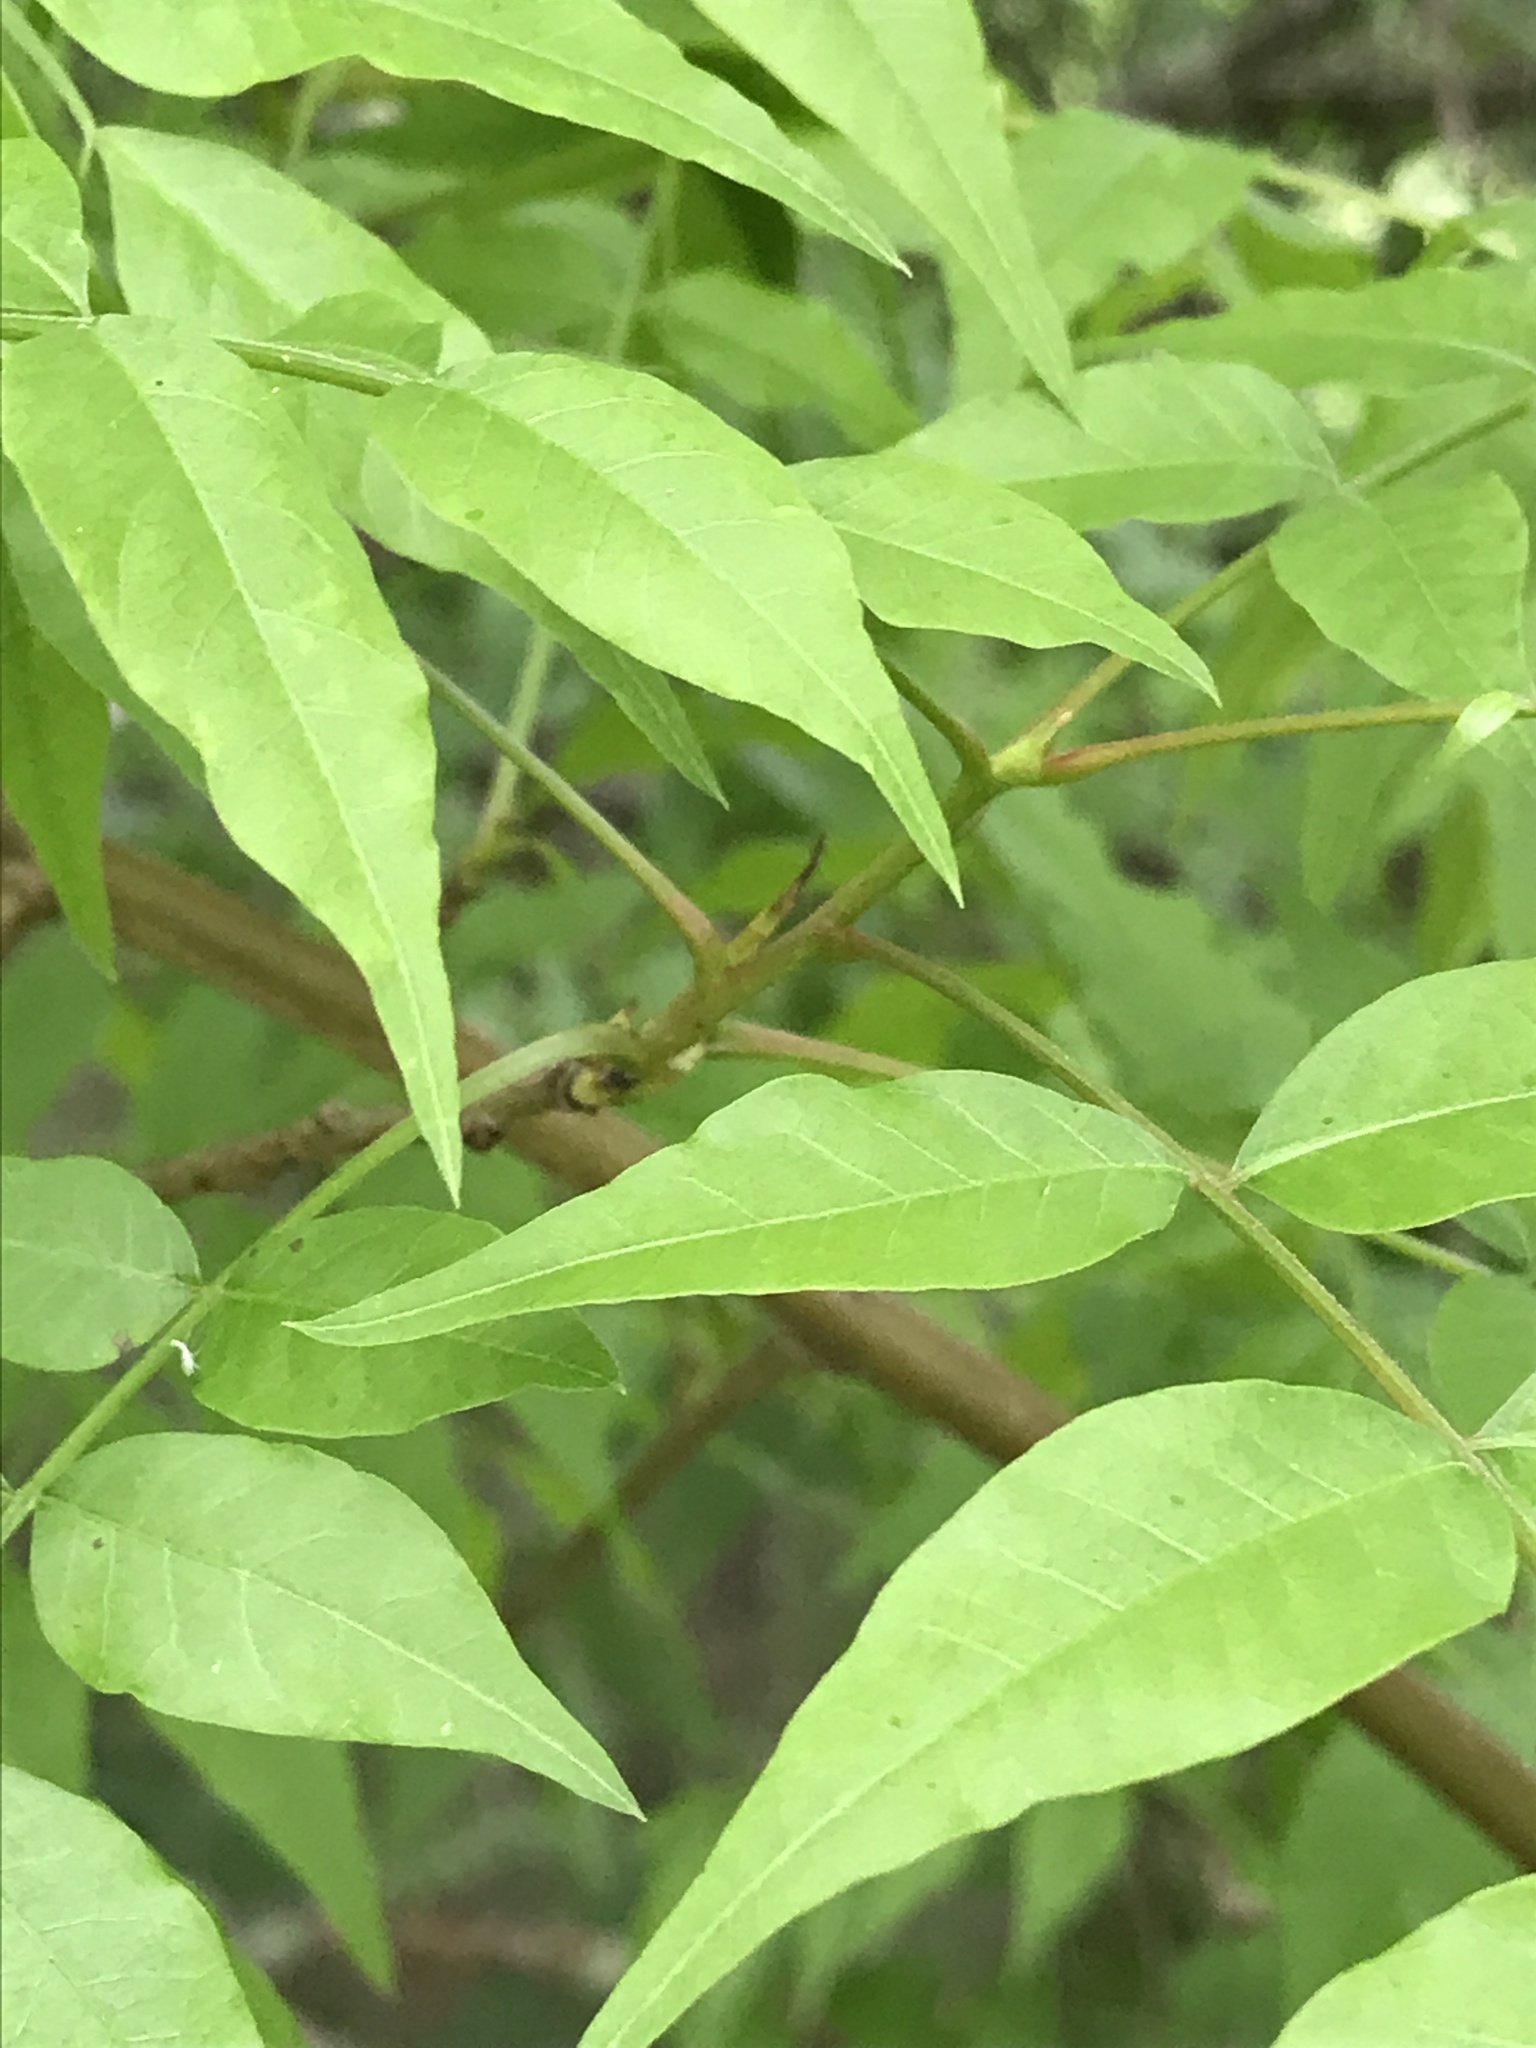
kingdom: Plantae
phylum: Tracheophyta
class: Magnoliopsida
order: Sapindales
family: Anacardiaceae
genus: Pistacia
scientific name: Pistacia chinensis
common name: Chinese pistache
